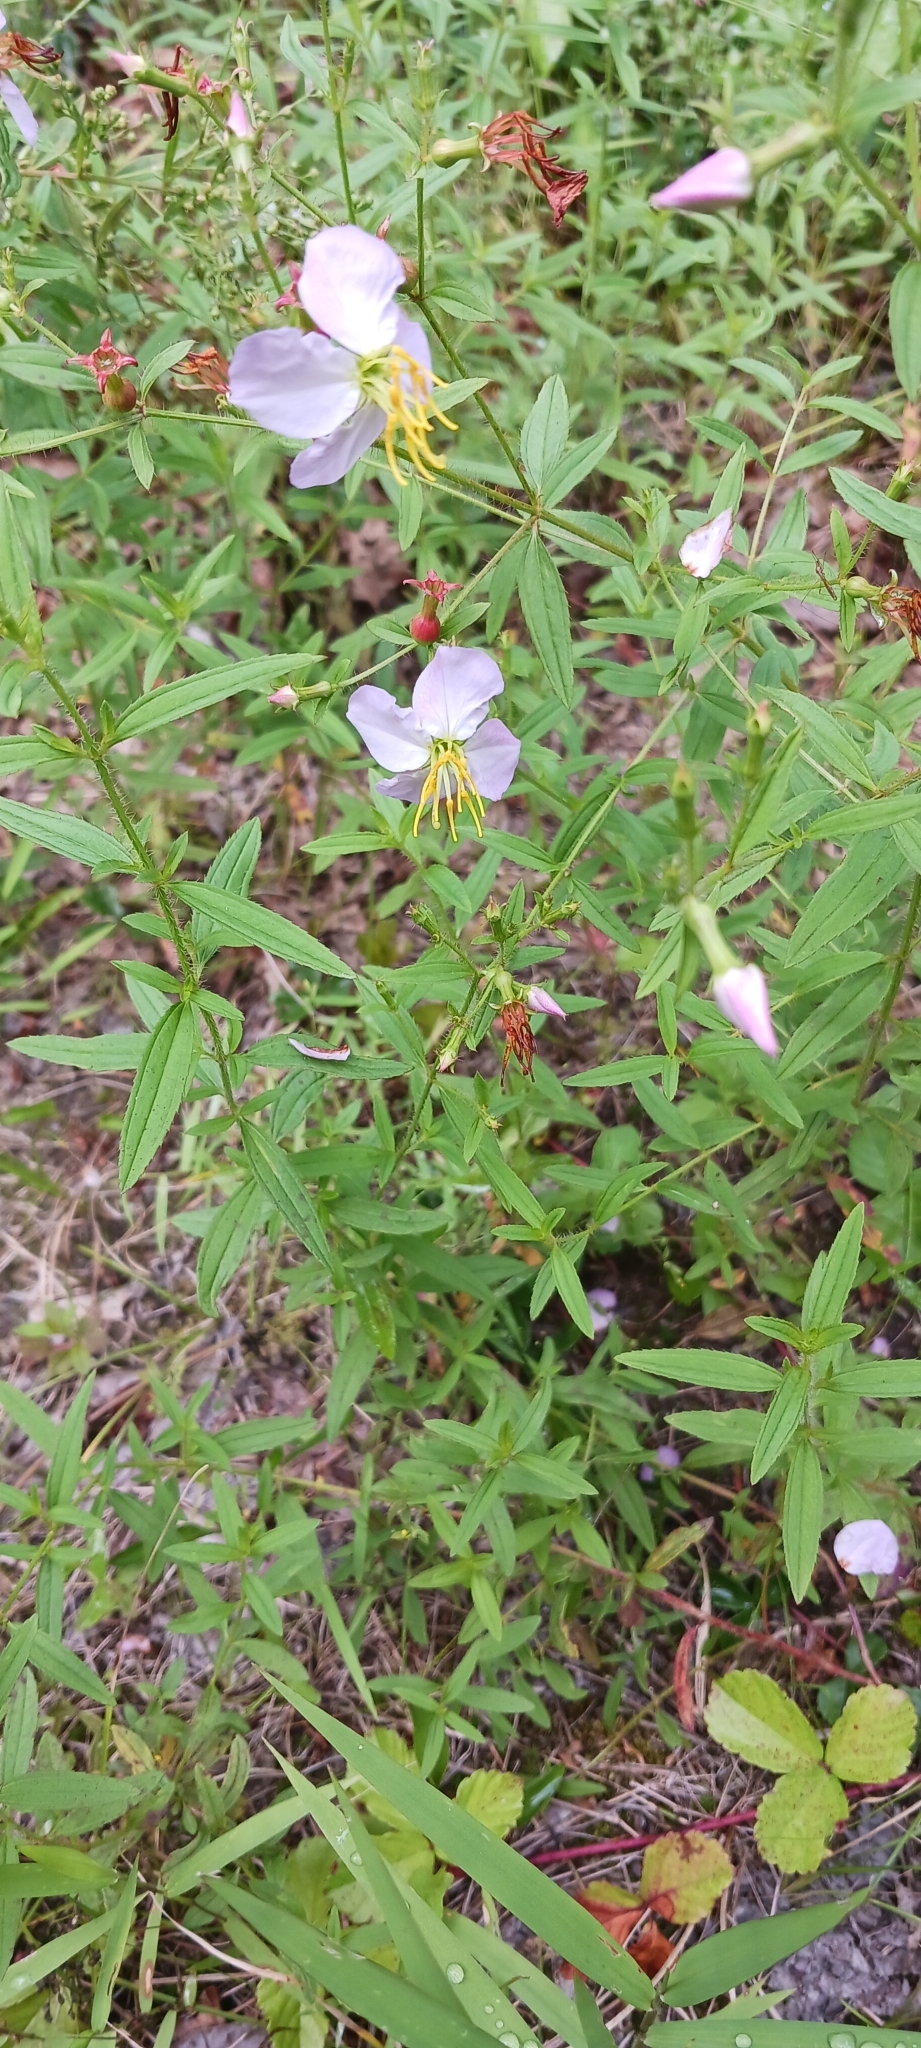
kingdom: Plantae
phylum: Tracheophyta
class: Magnoliopsida
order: Myrtales
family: Melastomataceae
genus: Rhexia
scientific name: Rhexia mariana
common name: Dull meadow-pitcher
